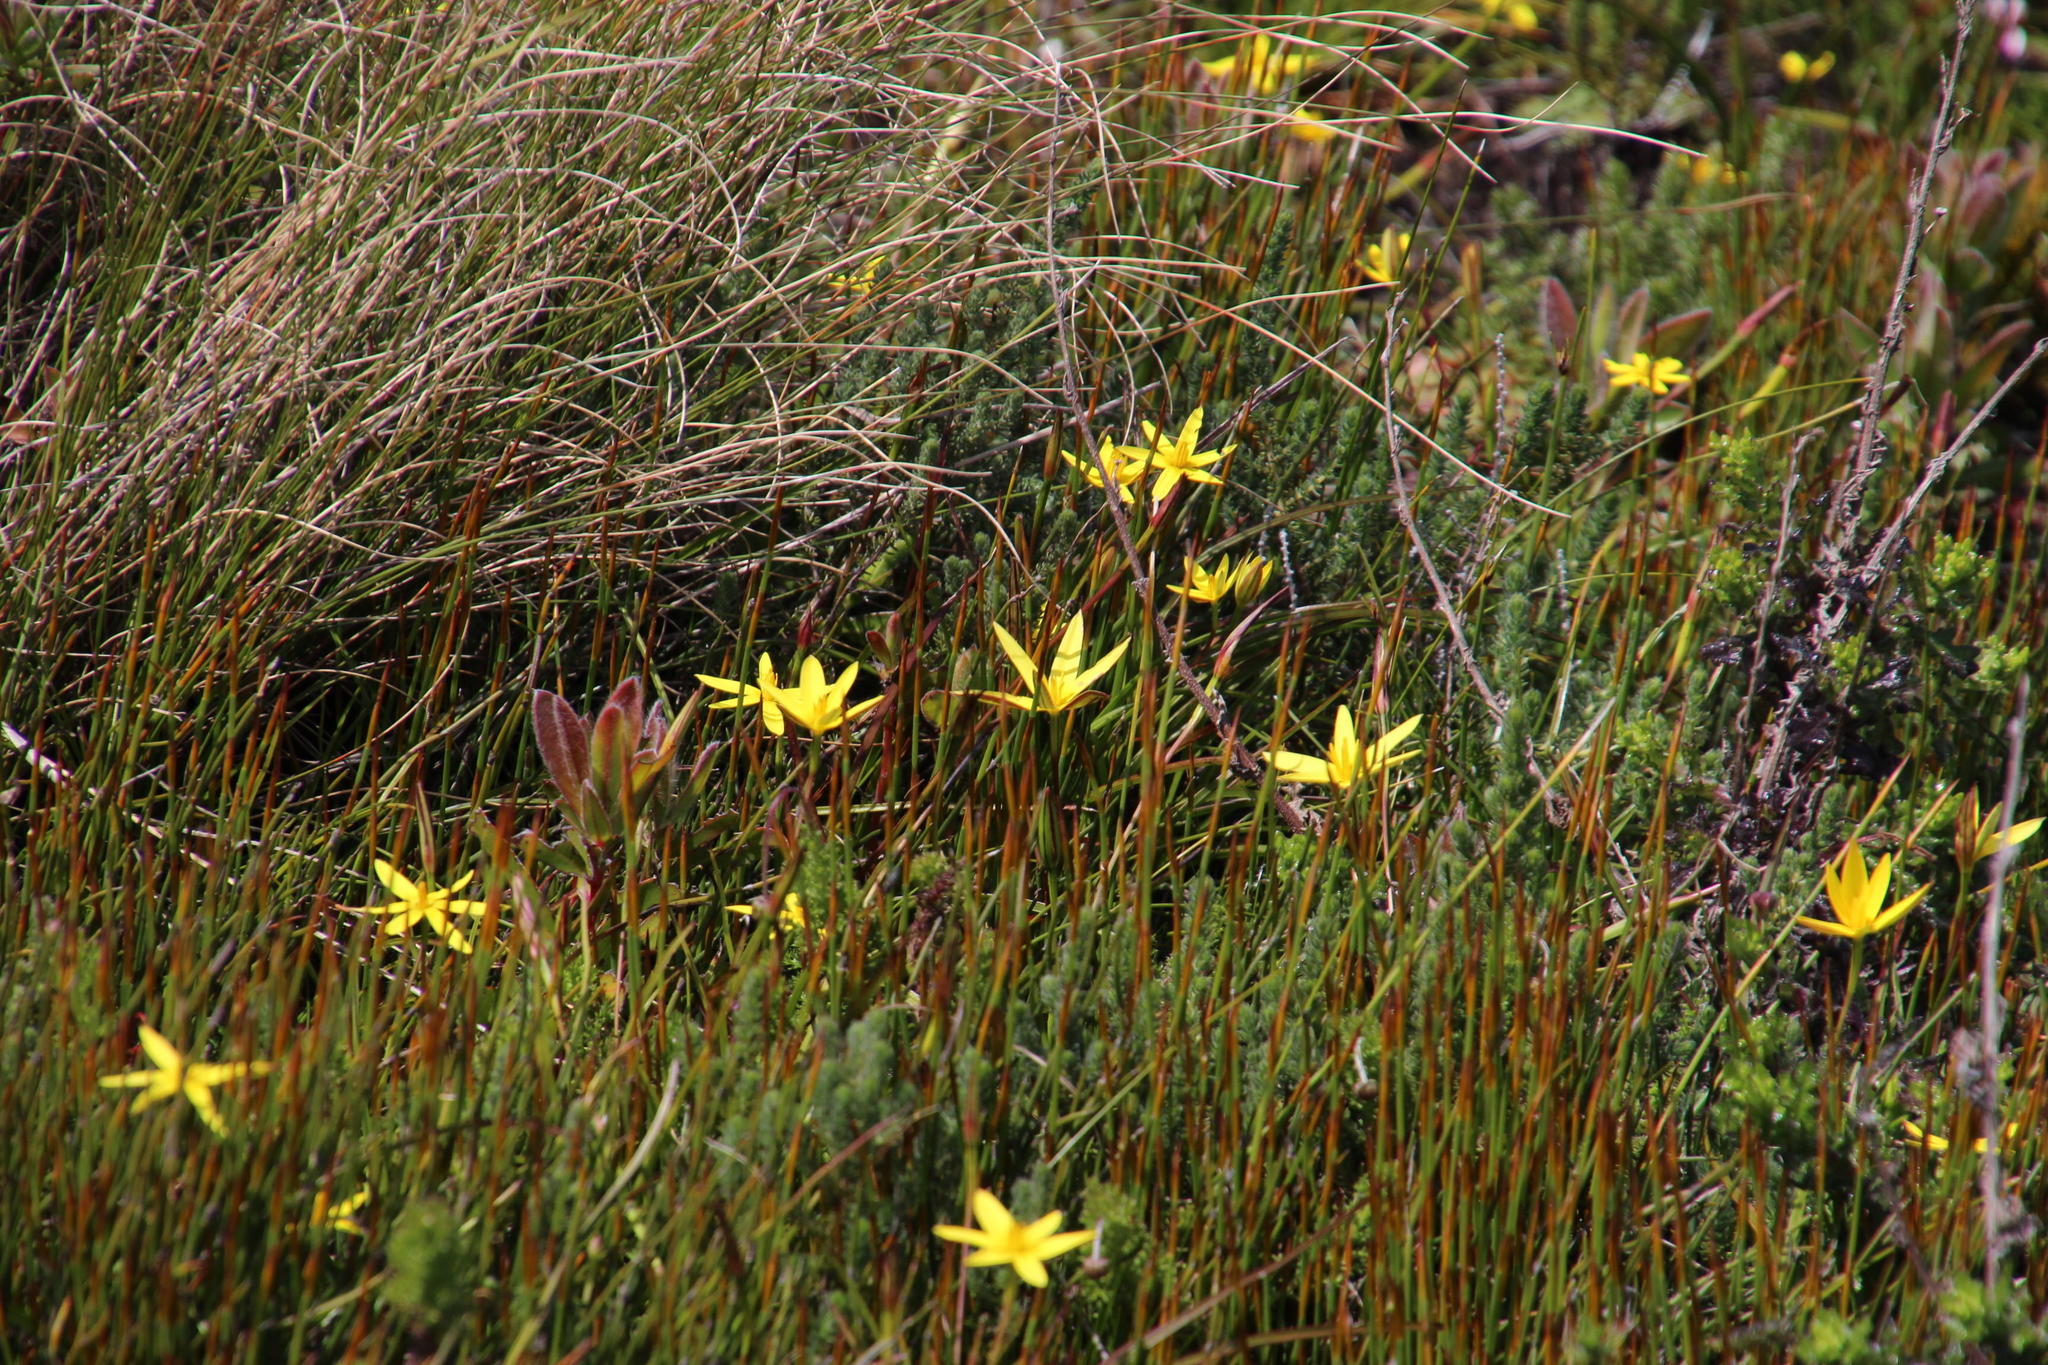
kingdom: Plantae
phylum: Tracheophyta
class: Liliopsida
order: Asparagales
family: Hypoxidaceae
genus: Pauridia
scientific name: Pauridia capensis
